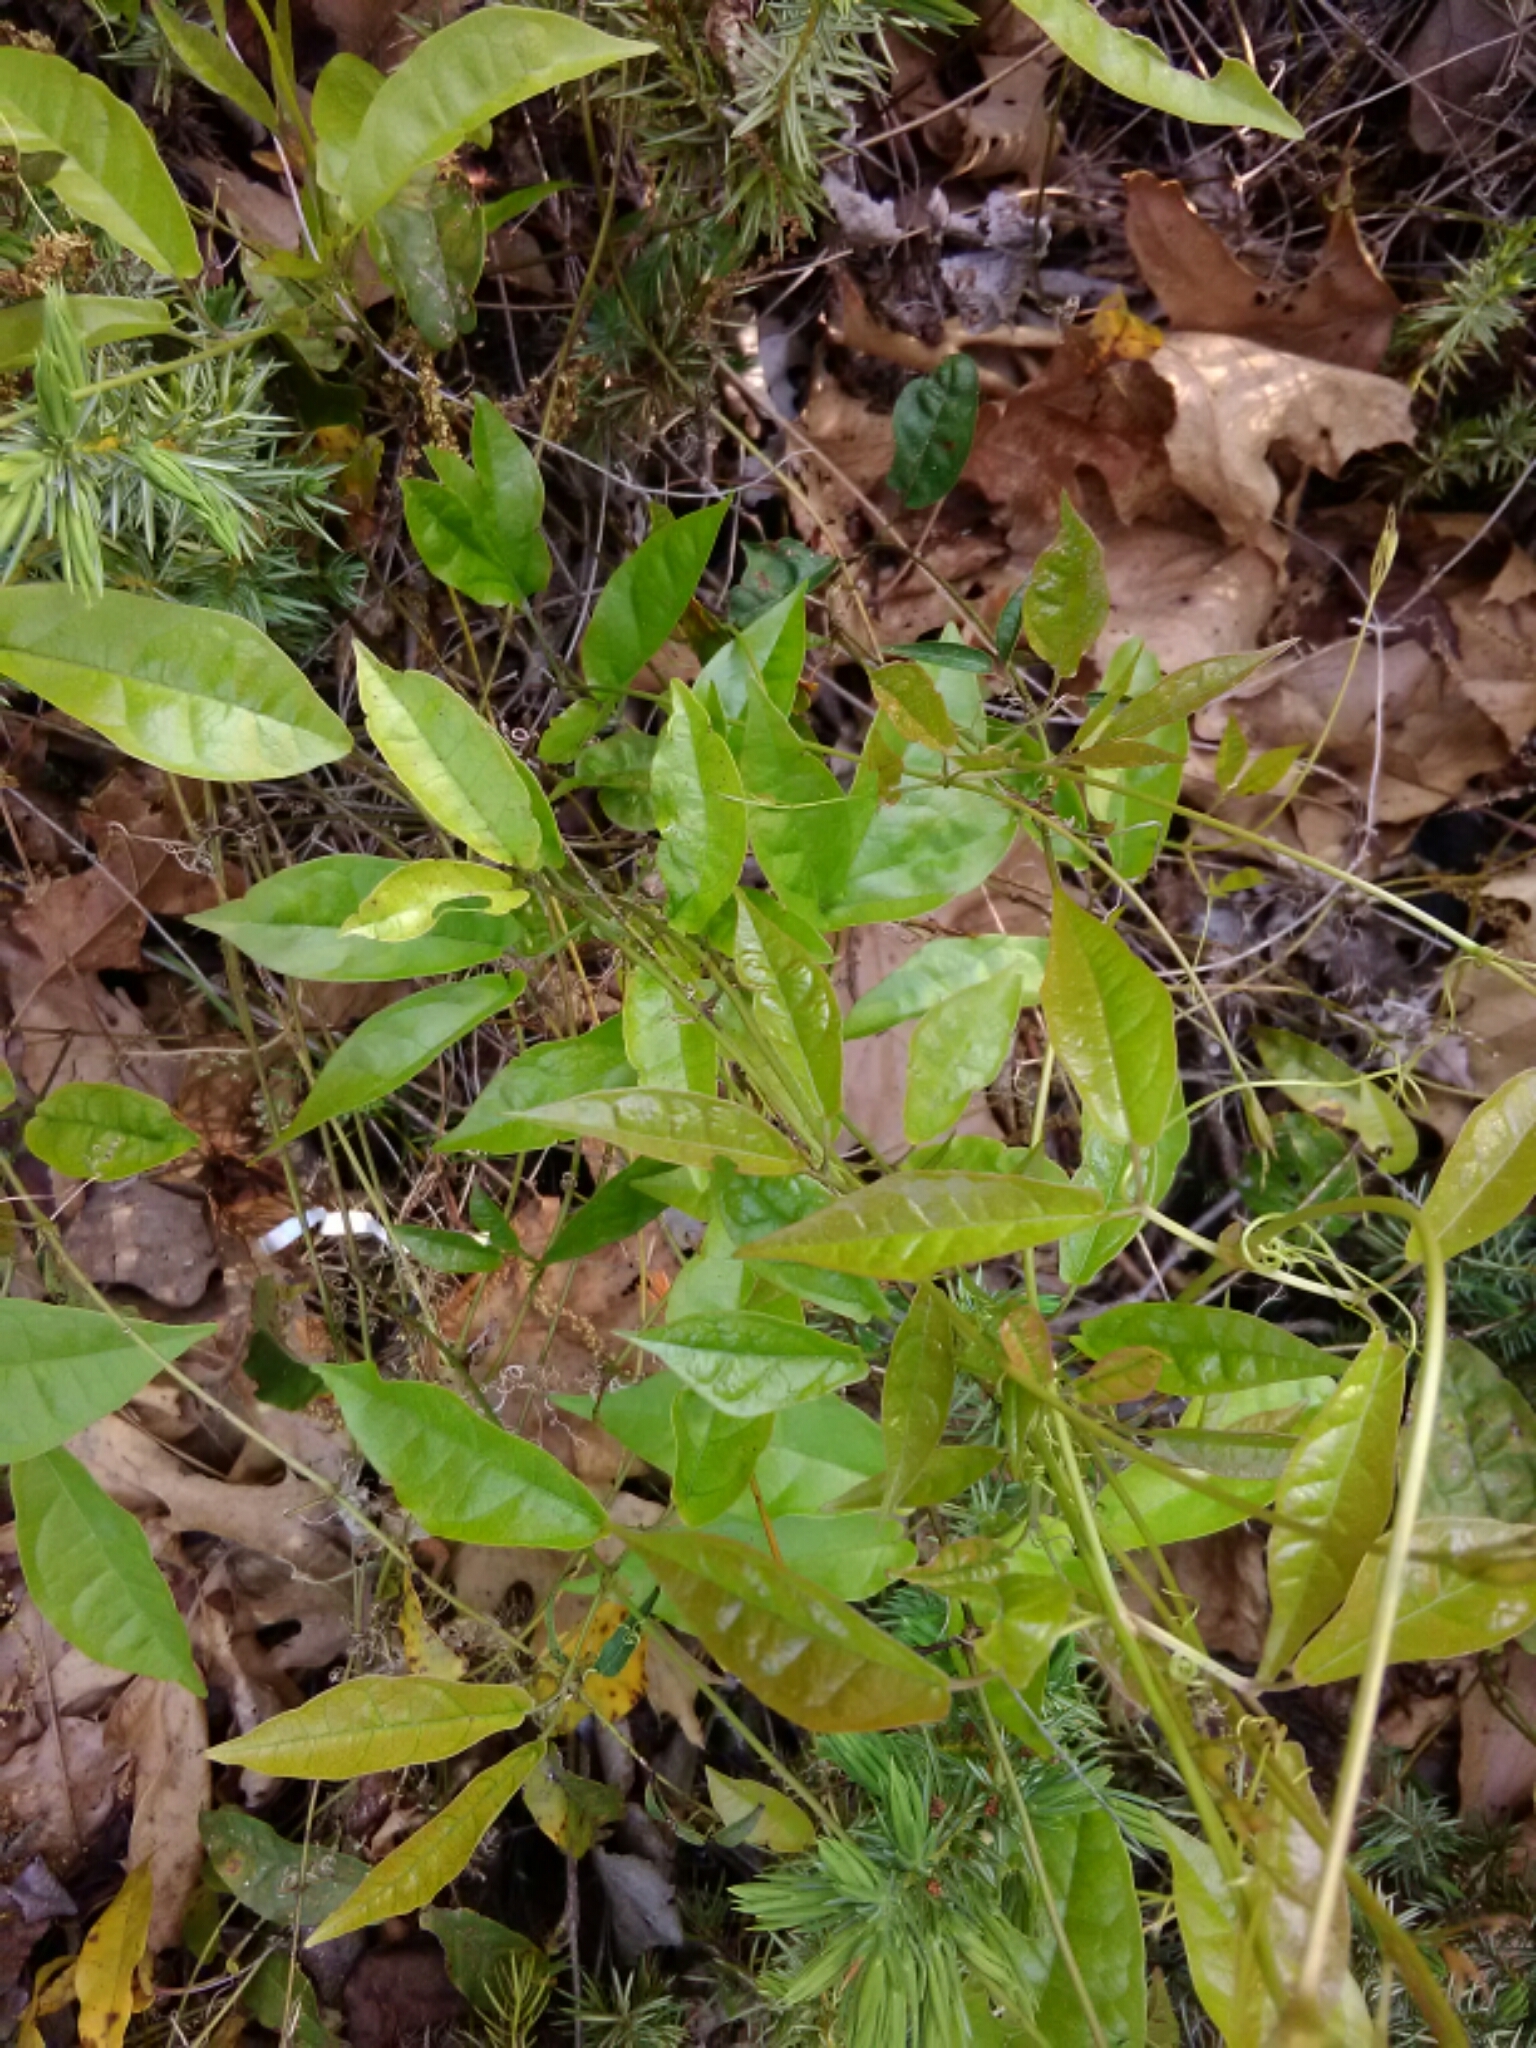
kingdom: Plantae
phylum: Tracheophyta
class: Magnoliopsida
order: Lamiales
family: Bignoniaceae
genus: Bignonia
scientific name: Bignonia capreolata
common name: Crossvine
